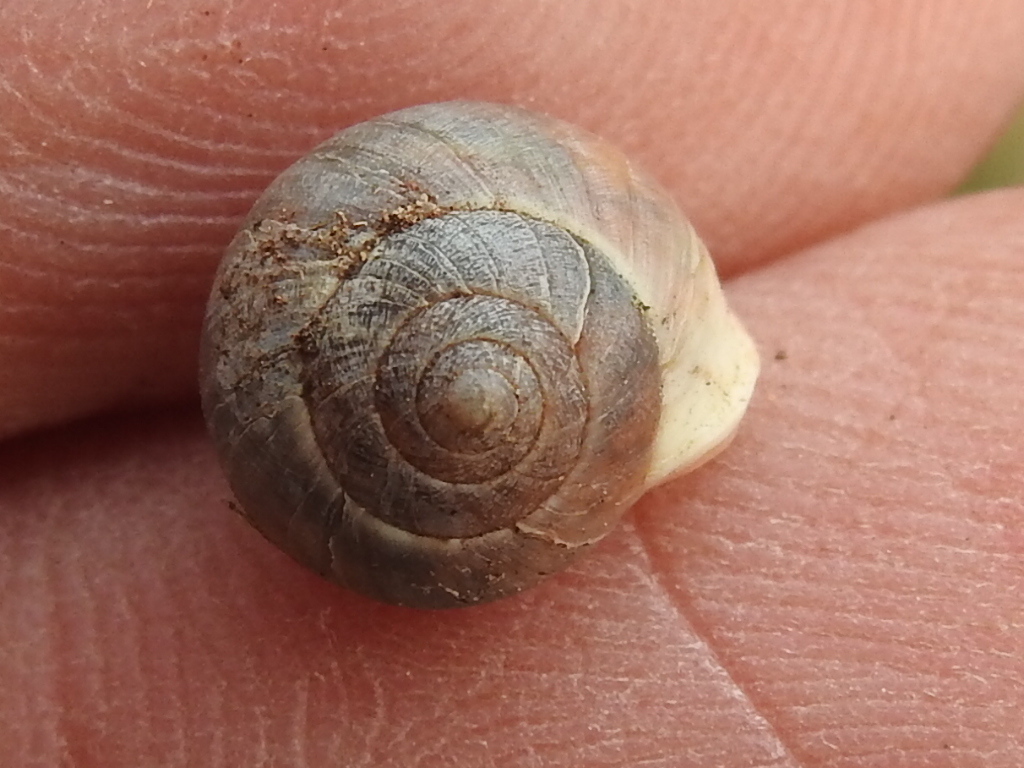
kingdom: Animalia
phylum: Mollusca
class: Gastropoda
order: Cycloneritida
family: Helicinidae
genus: Helicina
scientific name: Helicina orbiculata
